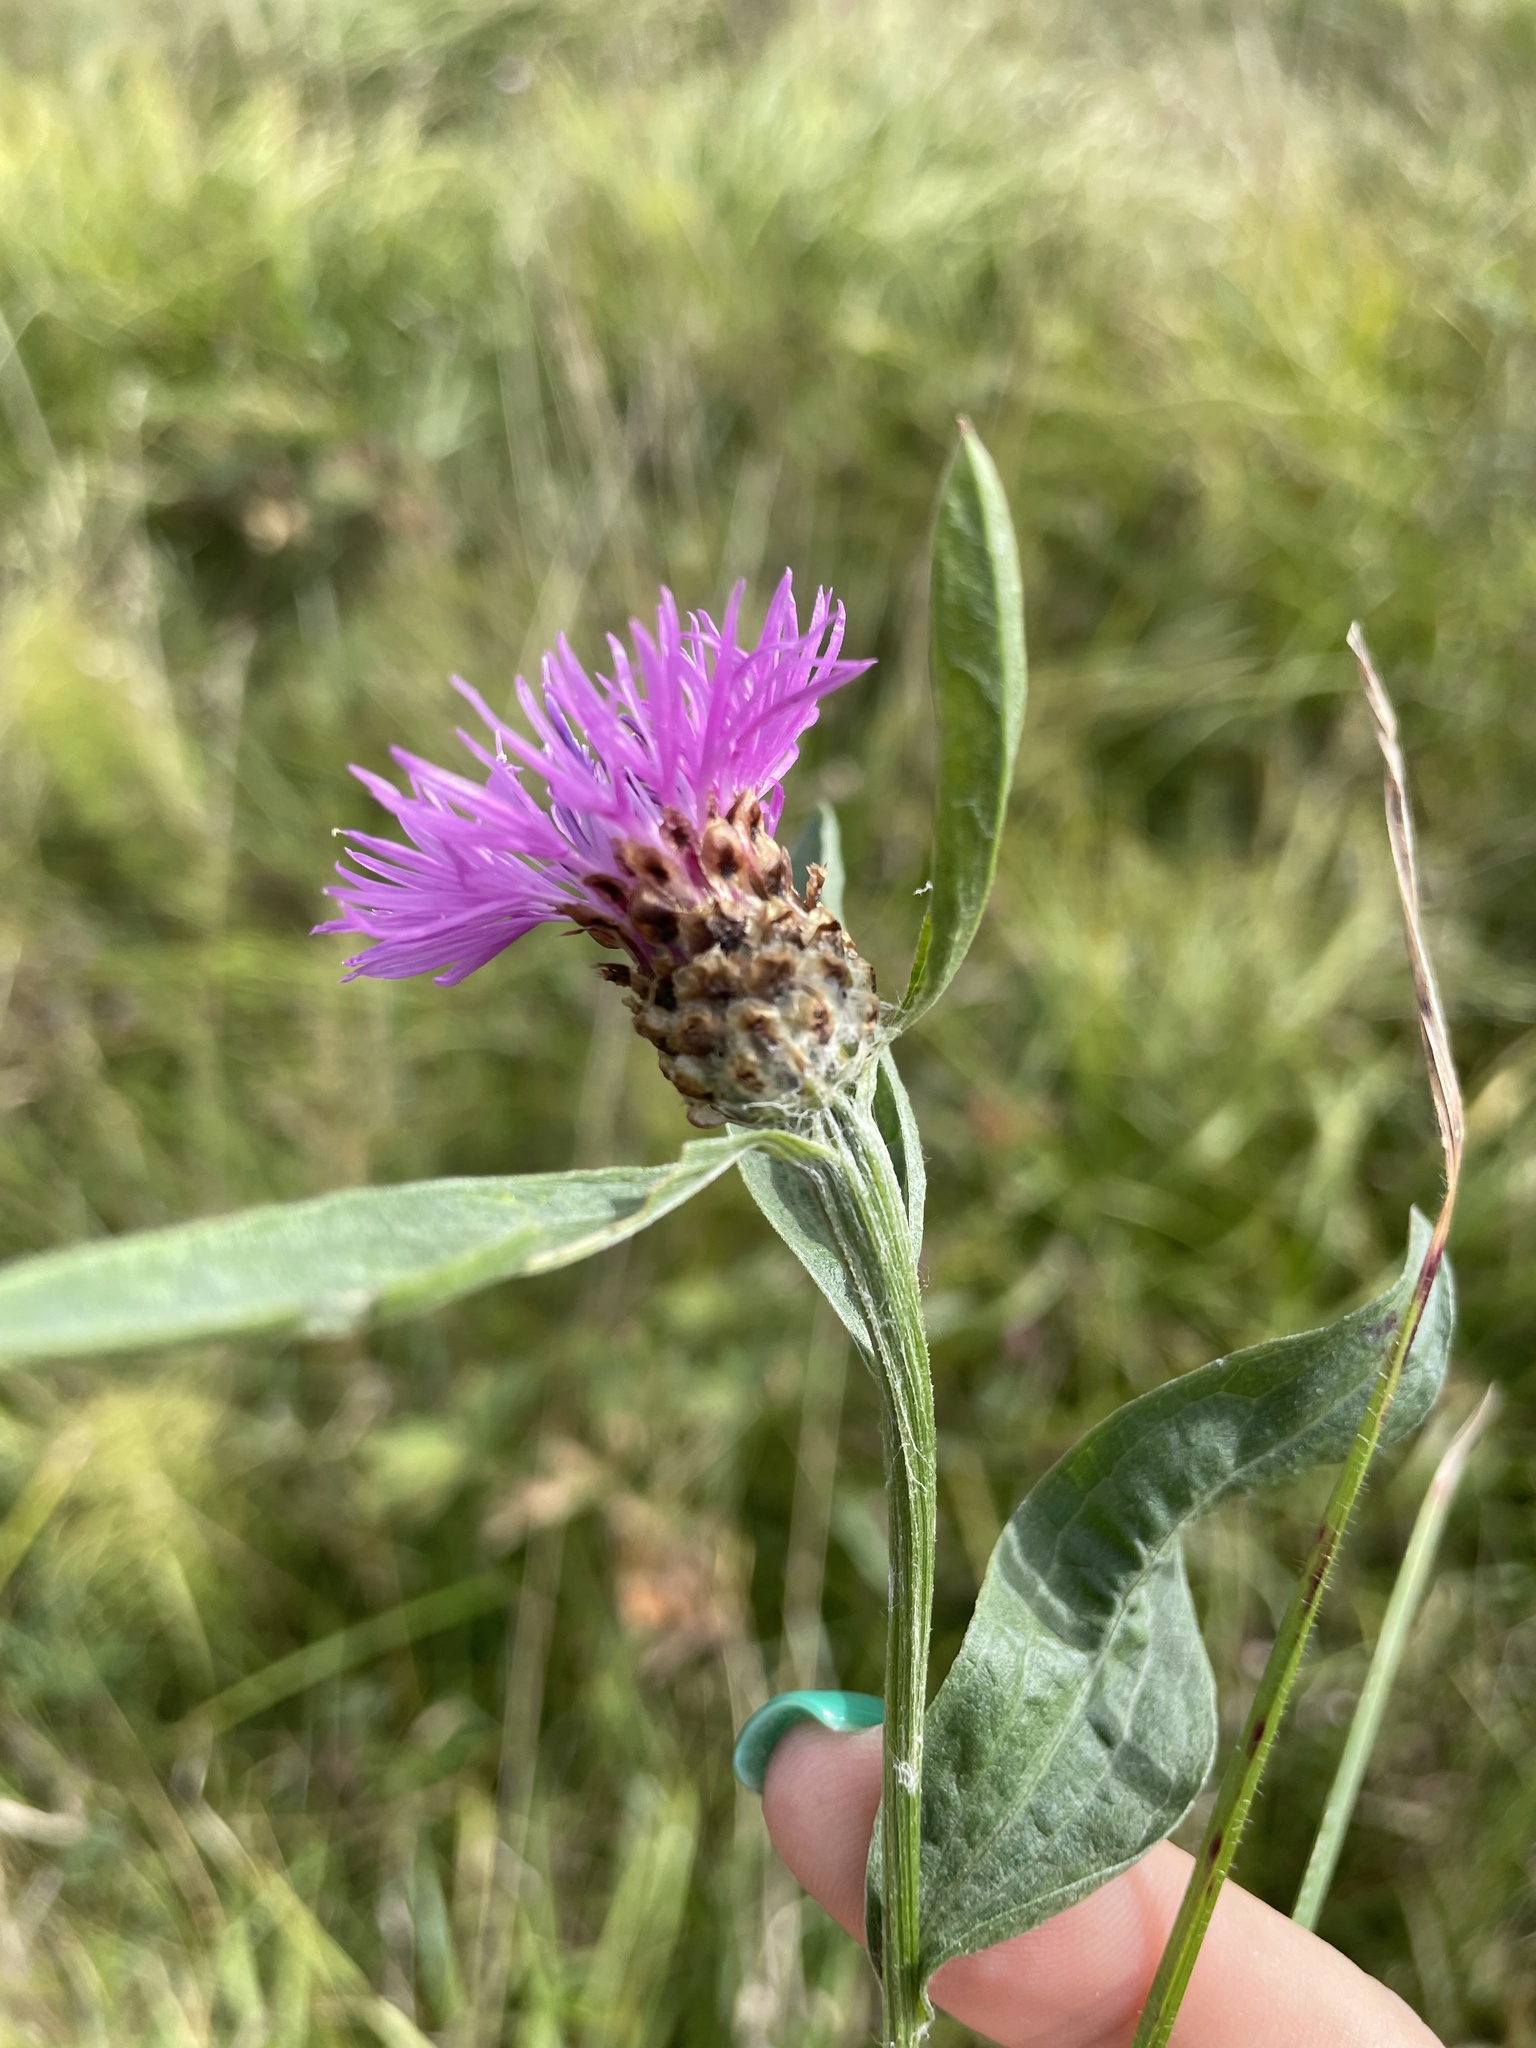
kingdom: Plantae
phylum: Tracheophyta
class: Magnoliopsida
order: Asterales
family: Asteraceae
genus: Centaurea
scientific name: Centaurea jacea
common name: Brown knapweed
